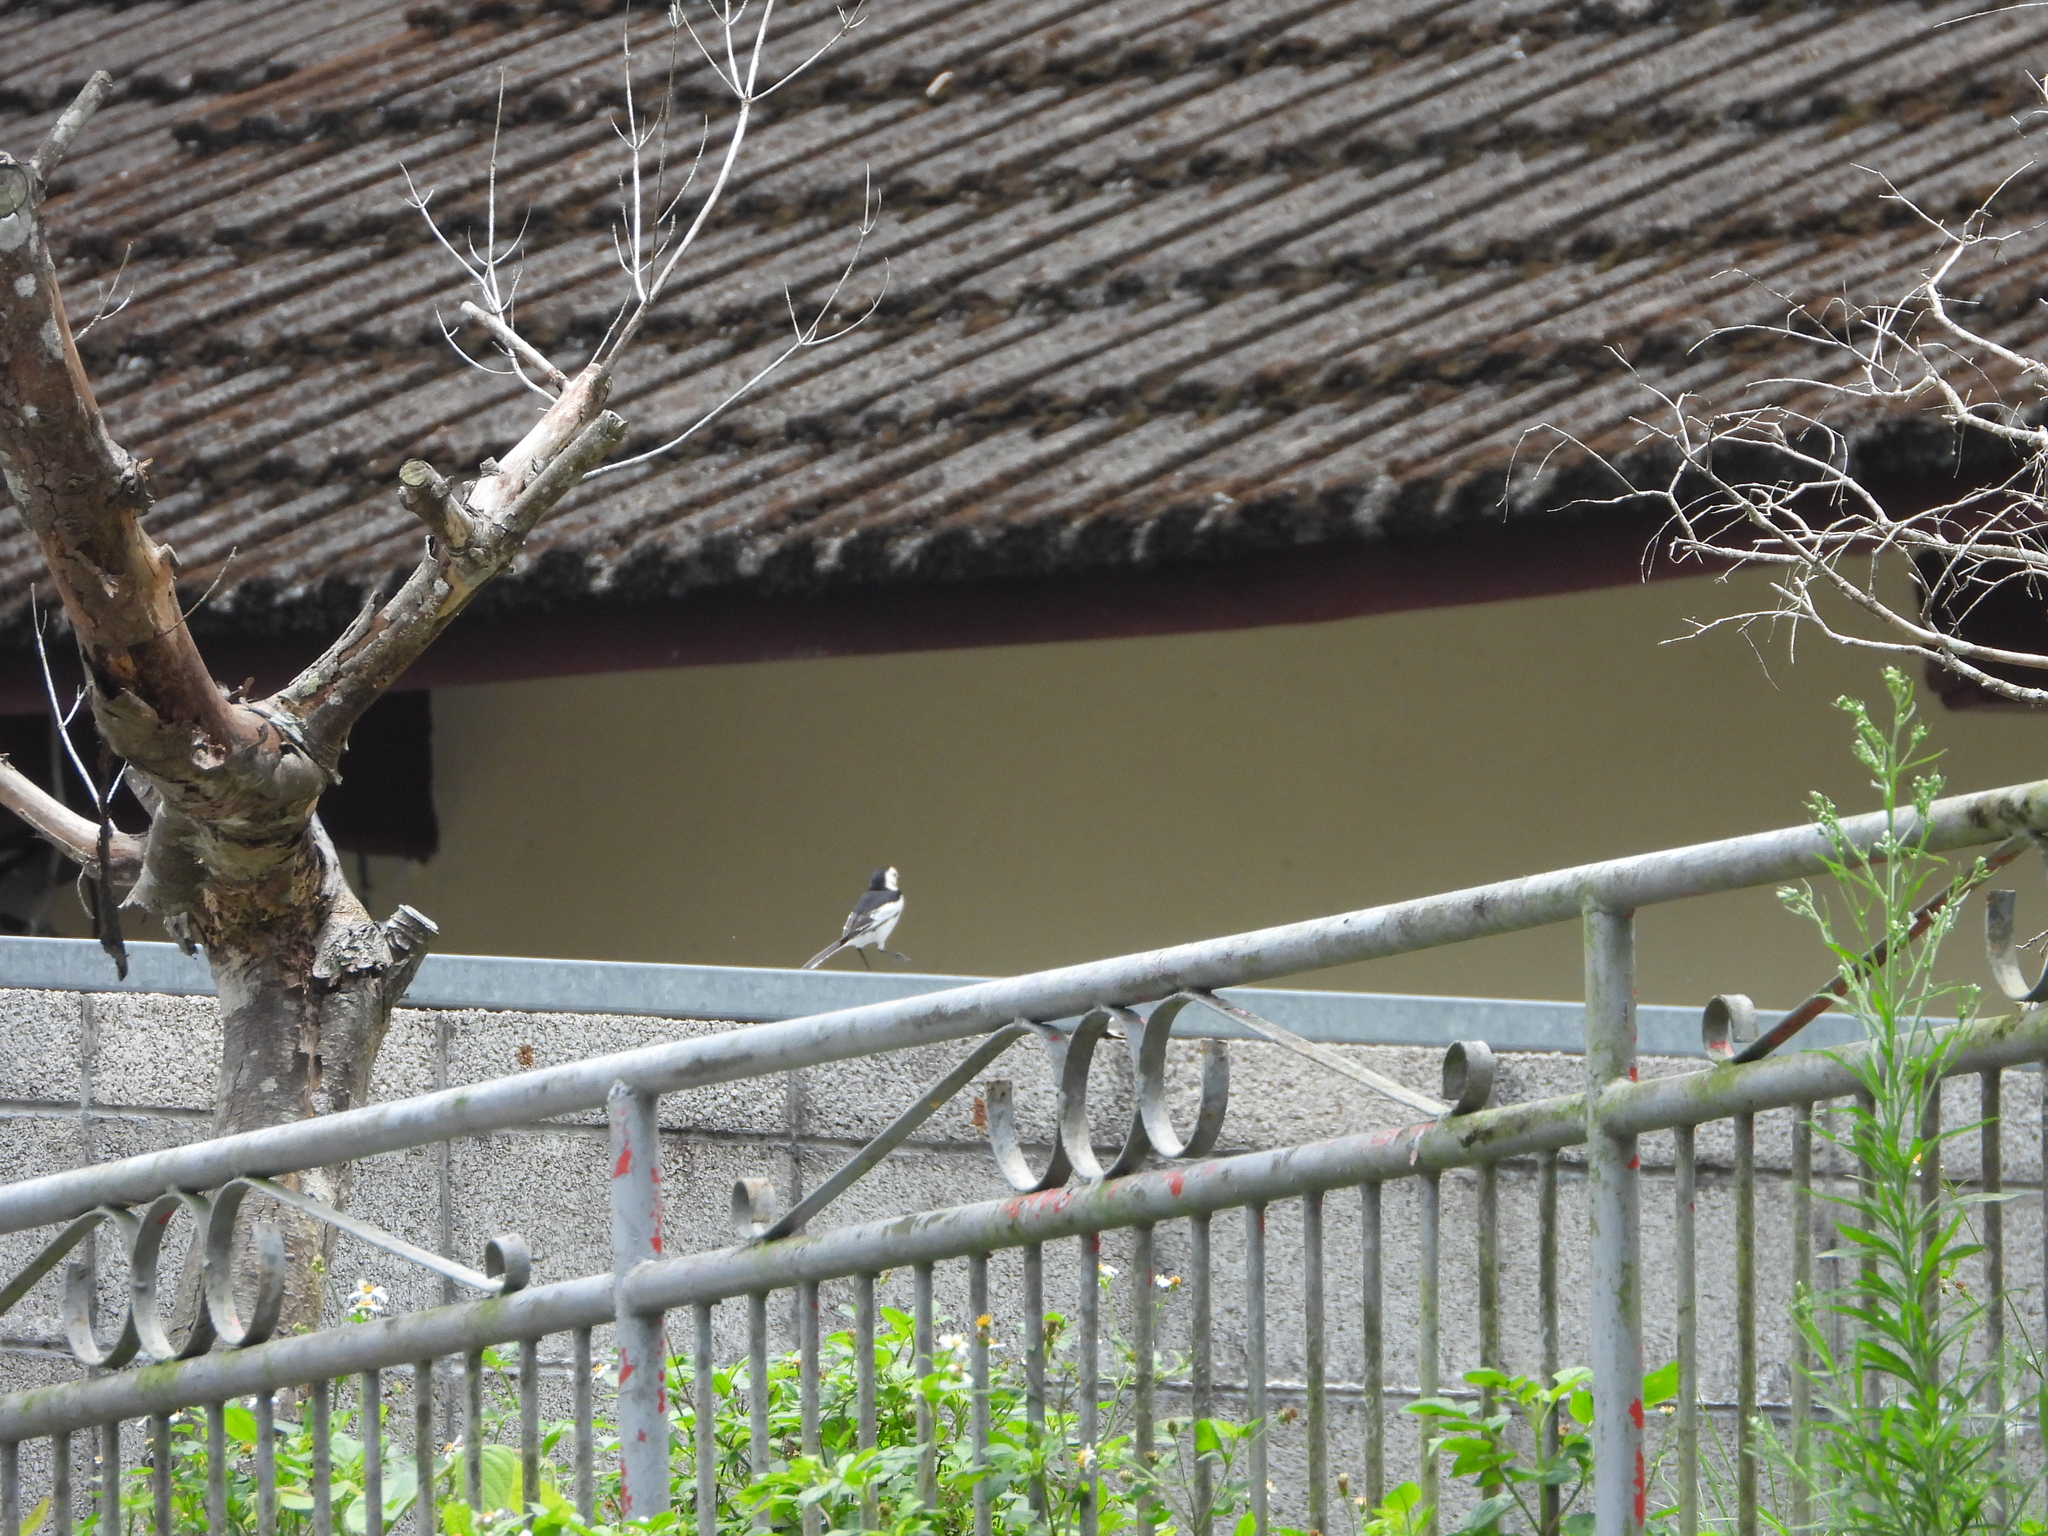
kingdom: Animalia
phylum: Chordata
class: Aves
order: Passeriformes
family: Motacillidae
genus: Motacilla
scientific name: Motacilla alba
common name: White wagtail
